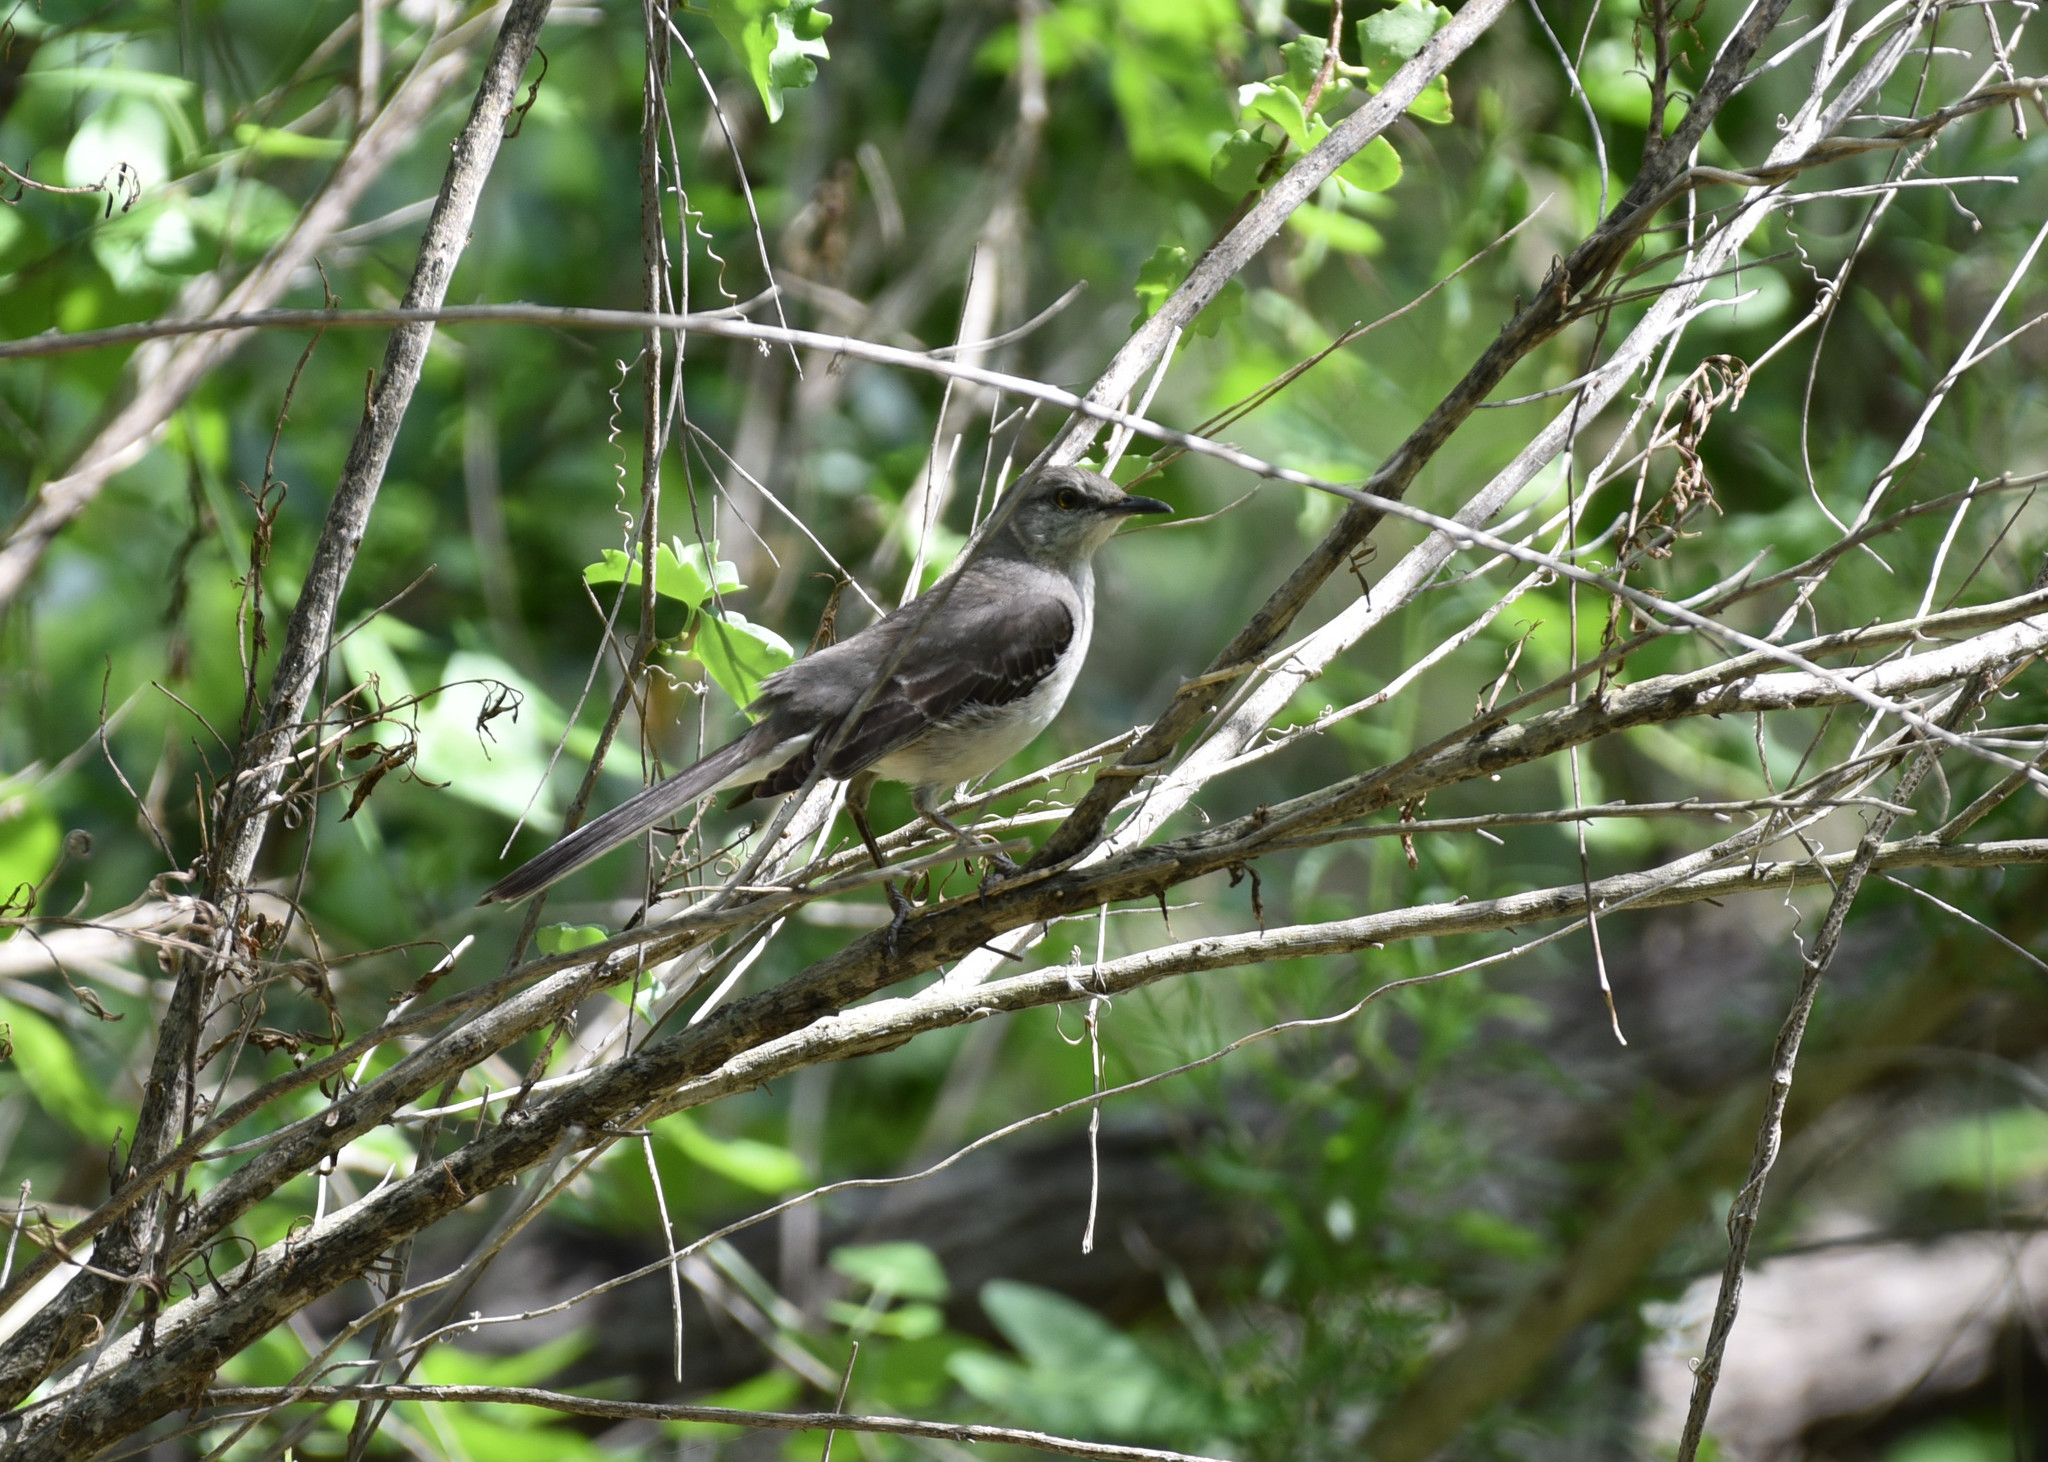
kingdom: Animalia
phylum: Chordata
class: Aves
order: Passeriformes
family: Mimidae
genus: Mimus
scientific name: Mimus polyglottos
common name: Northern mockingbird
